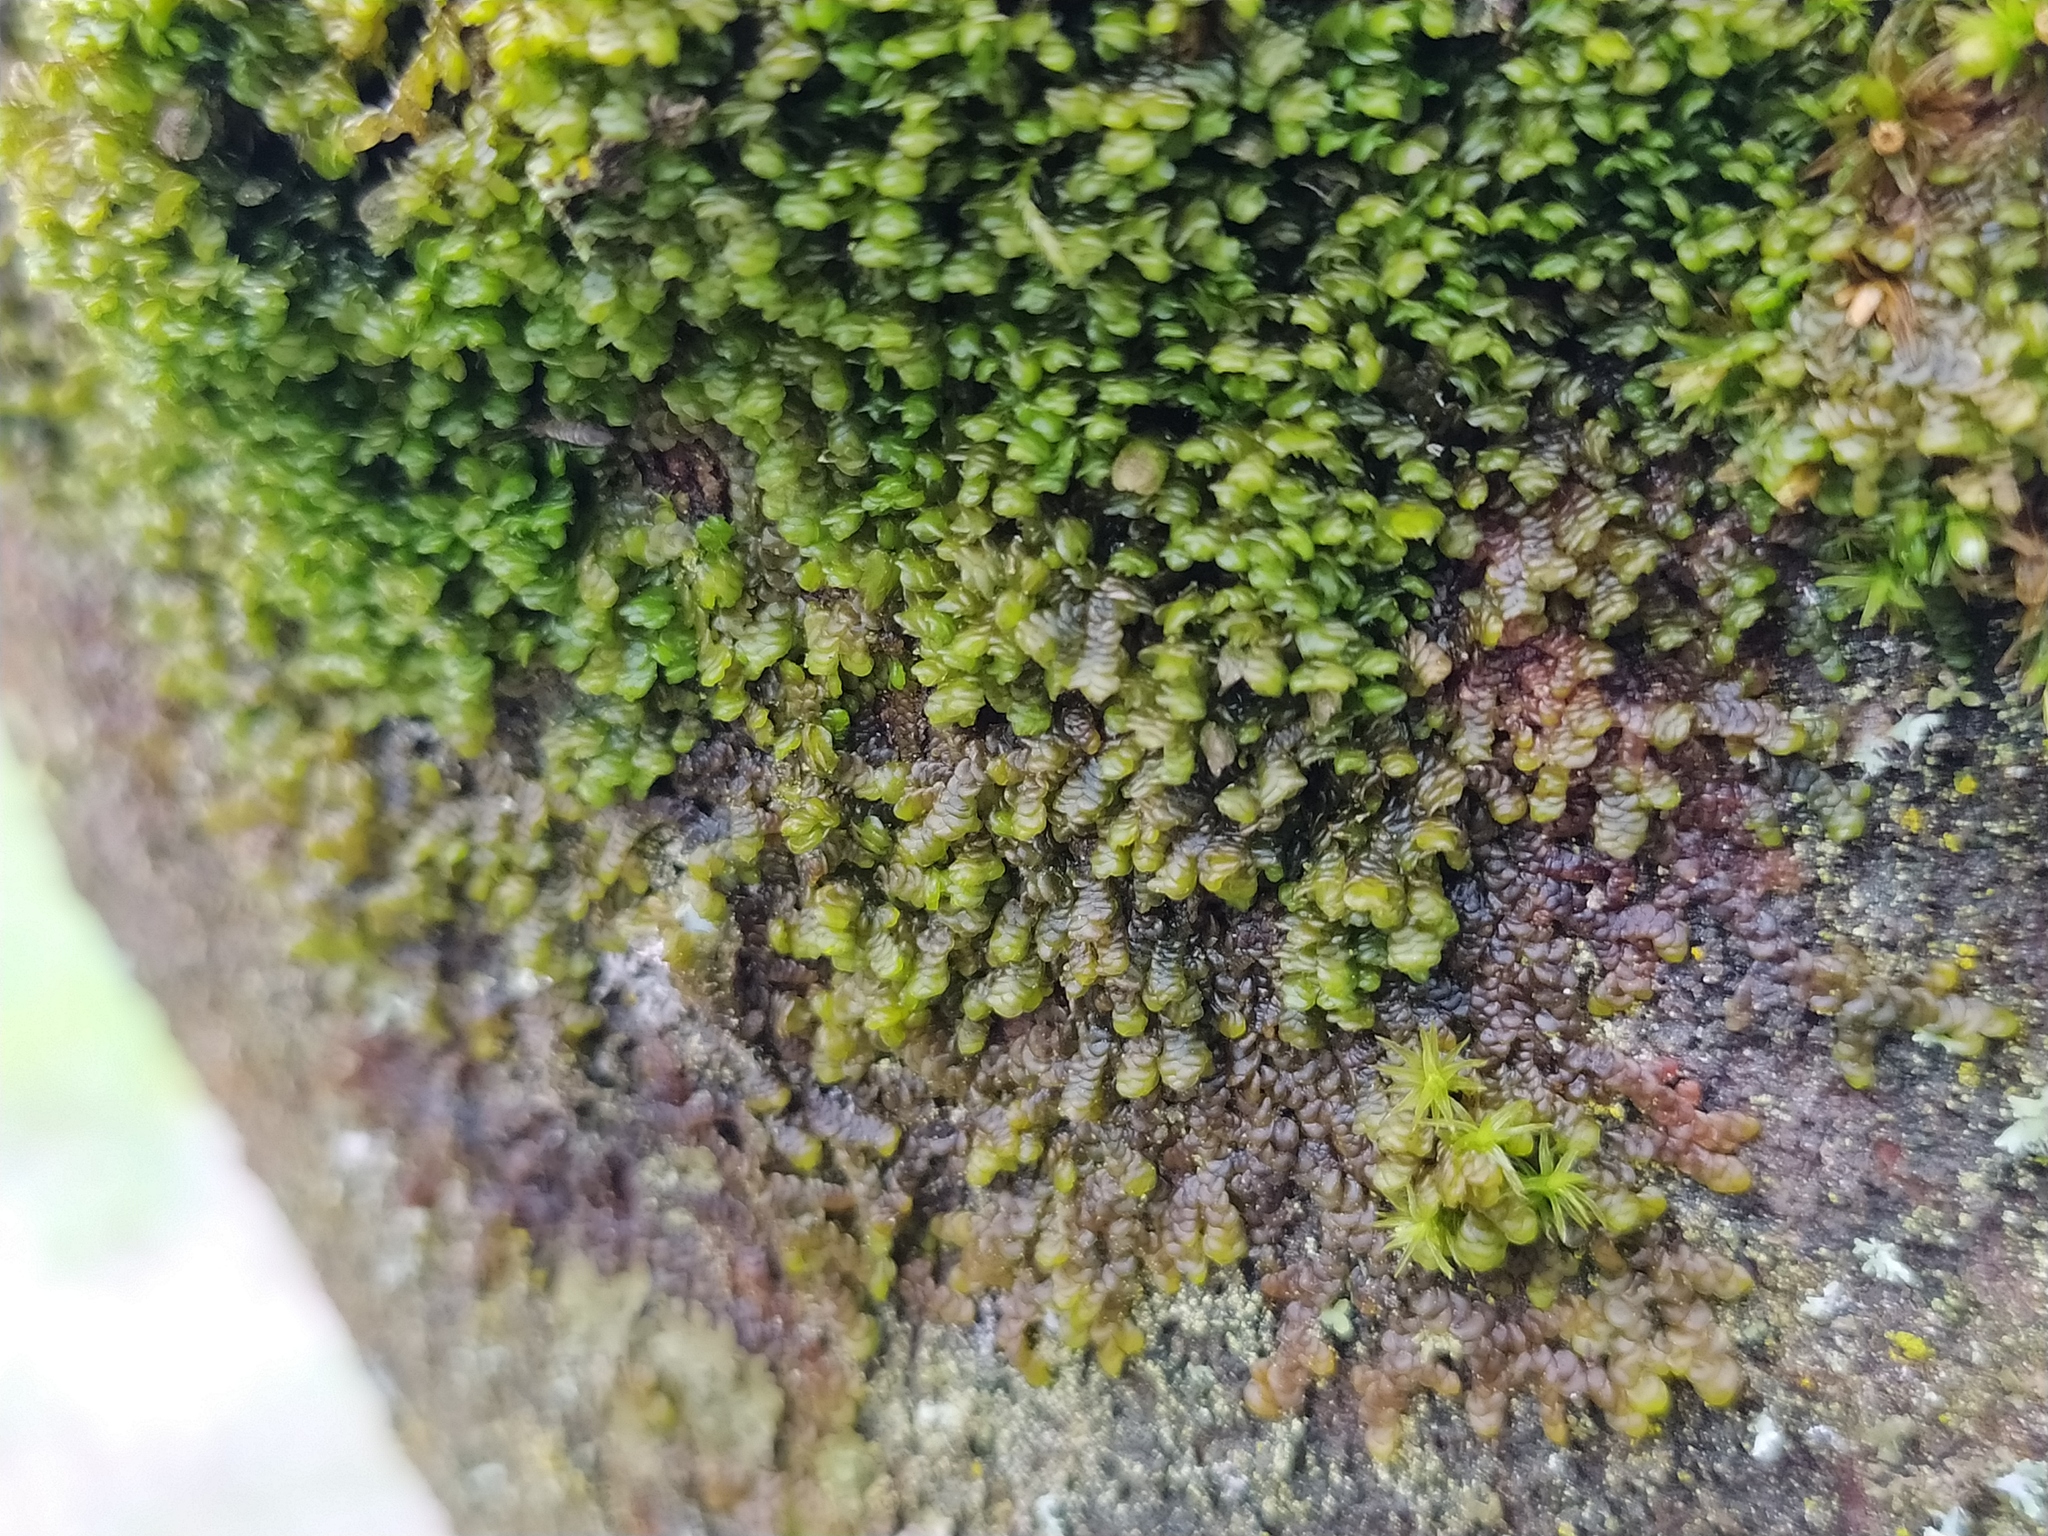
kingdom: Plantae
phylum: Marchantiophyta
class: Jungermanniopsida
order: Porellales
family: Frullaniaceae
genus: Frullania
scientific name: Frullania dilatata
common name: Dilated scalewort
